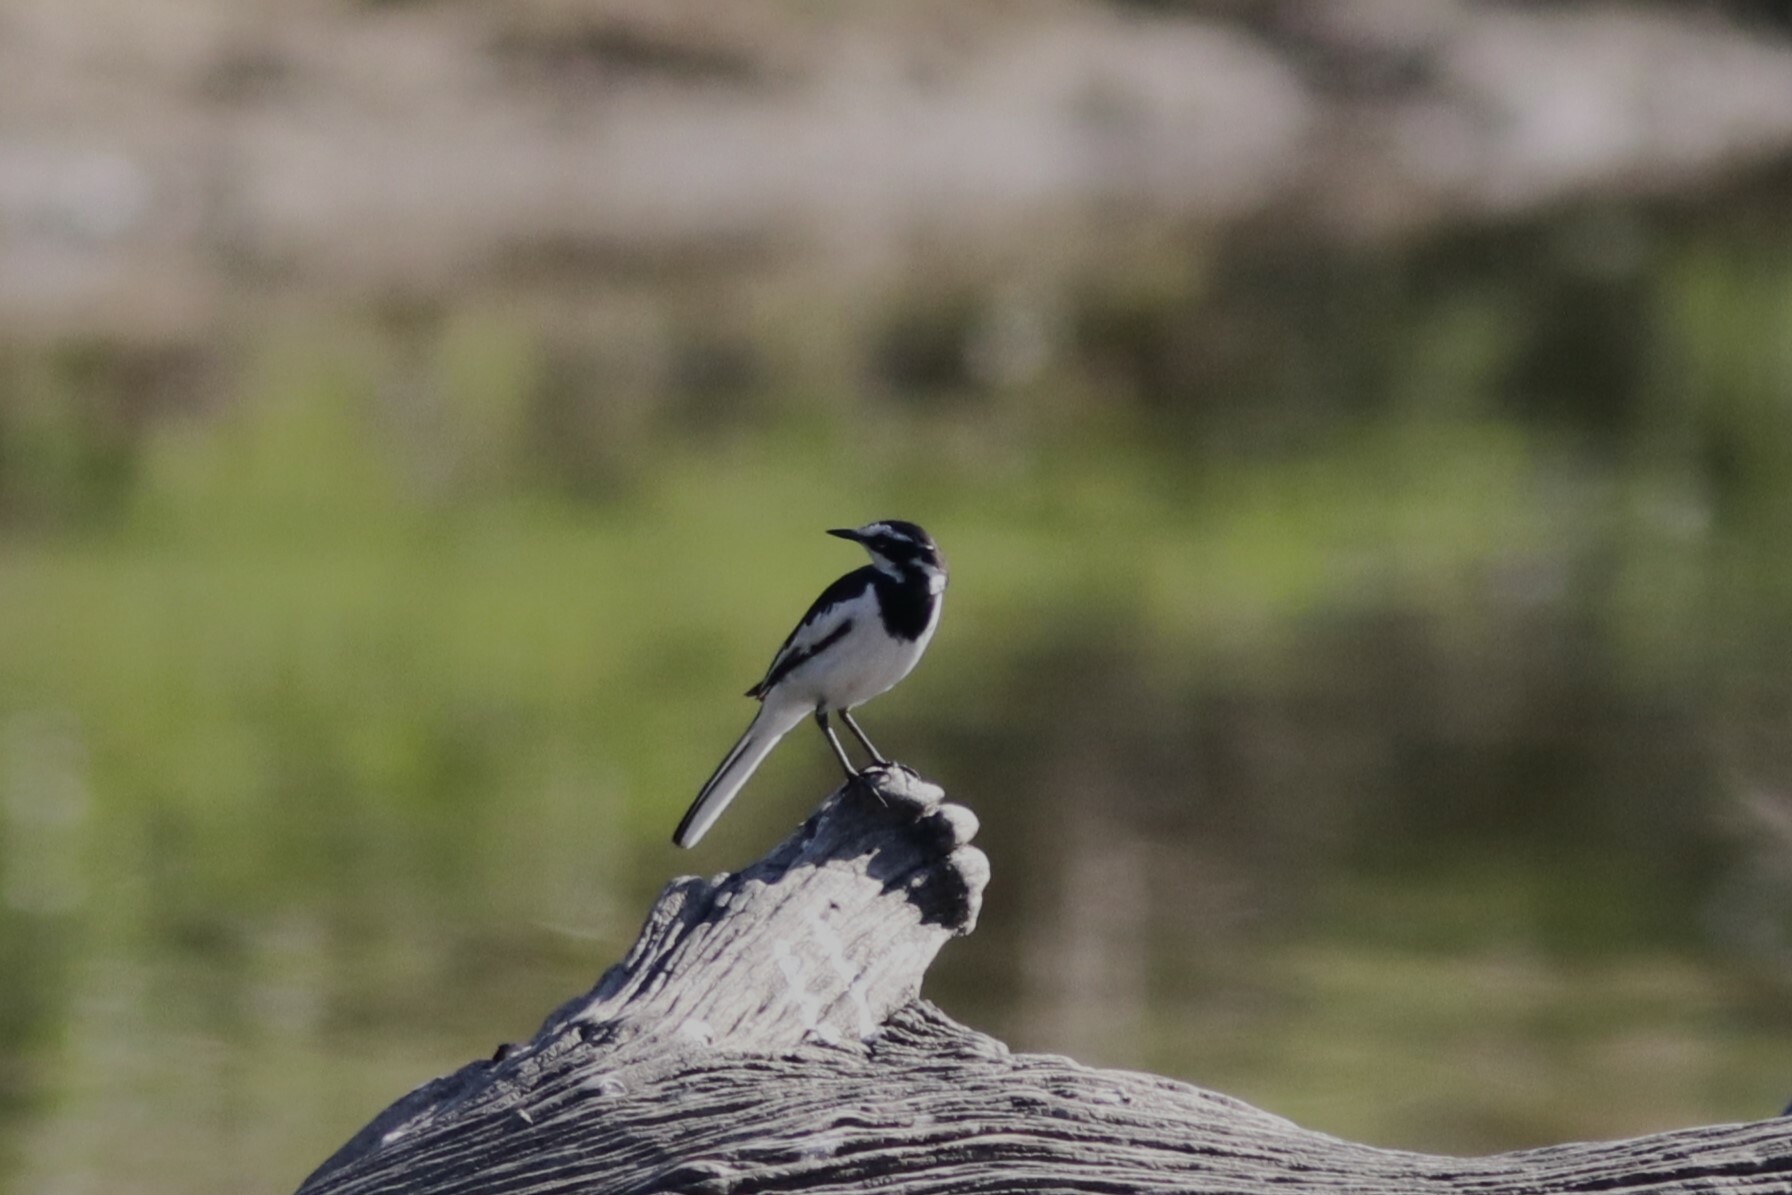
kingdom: Animalia
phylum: Chordata
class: Aves
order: Passeriformes
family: Motacillidae
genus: Motacilla
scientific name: Motacilla aguimp
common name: African pied wagtail
